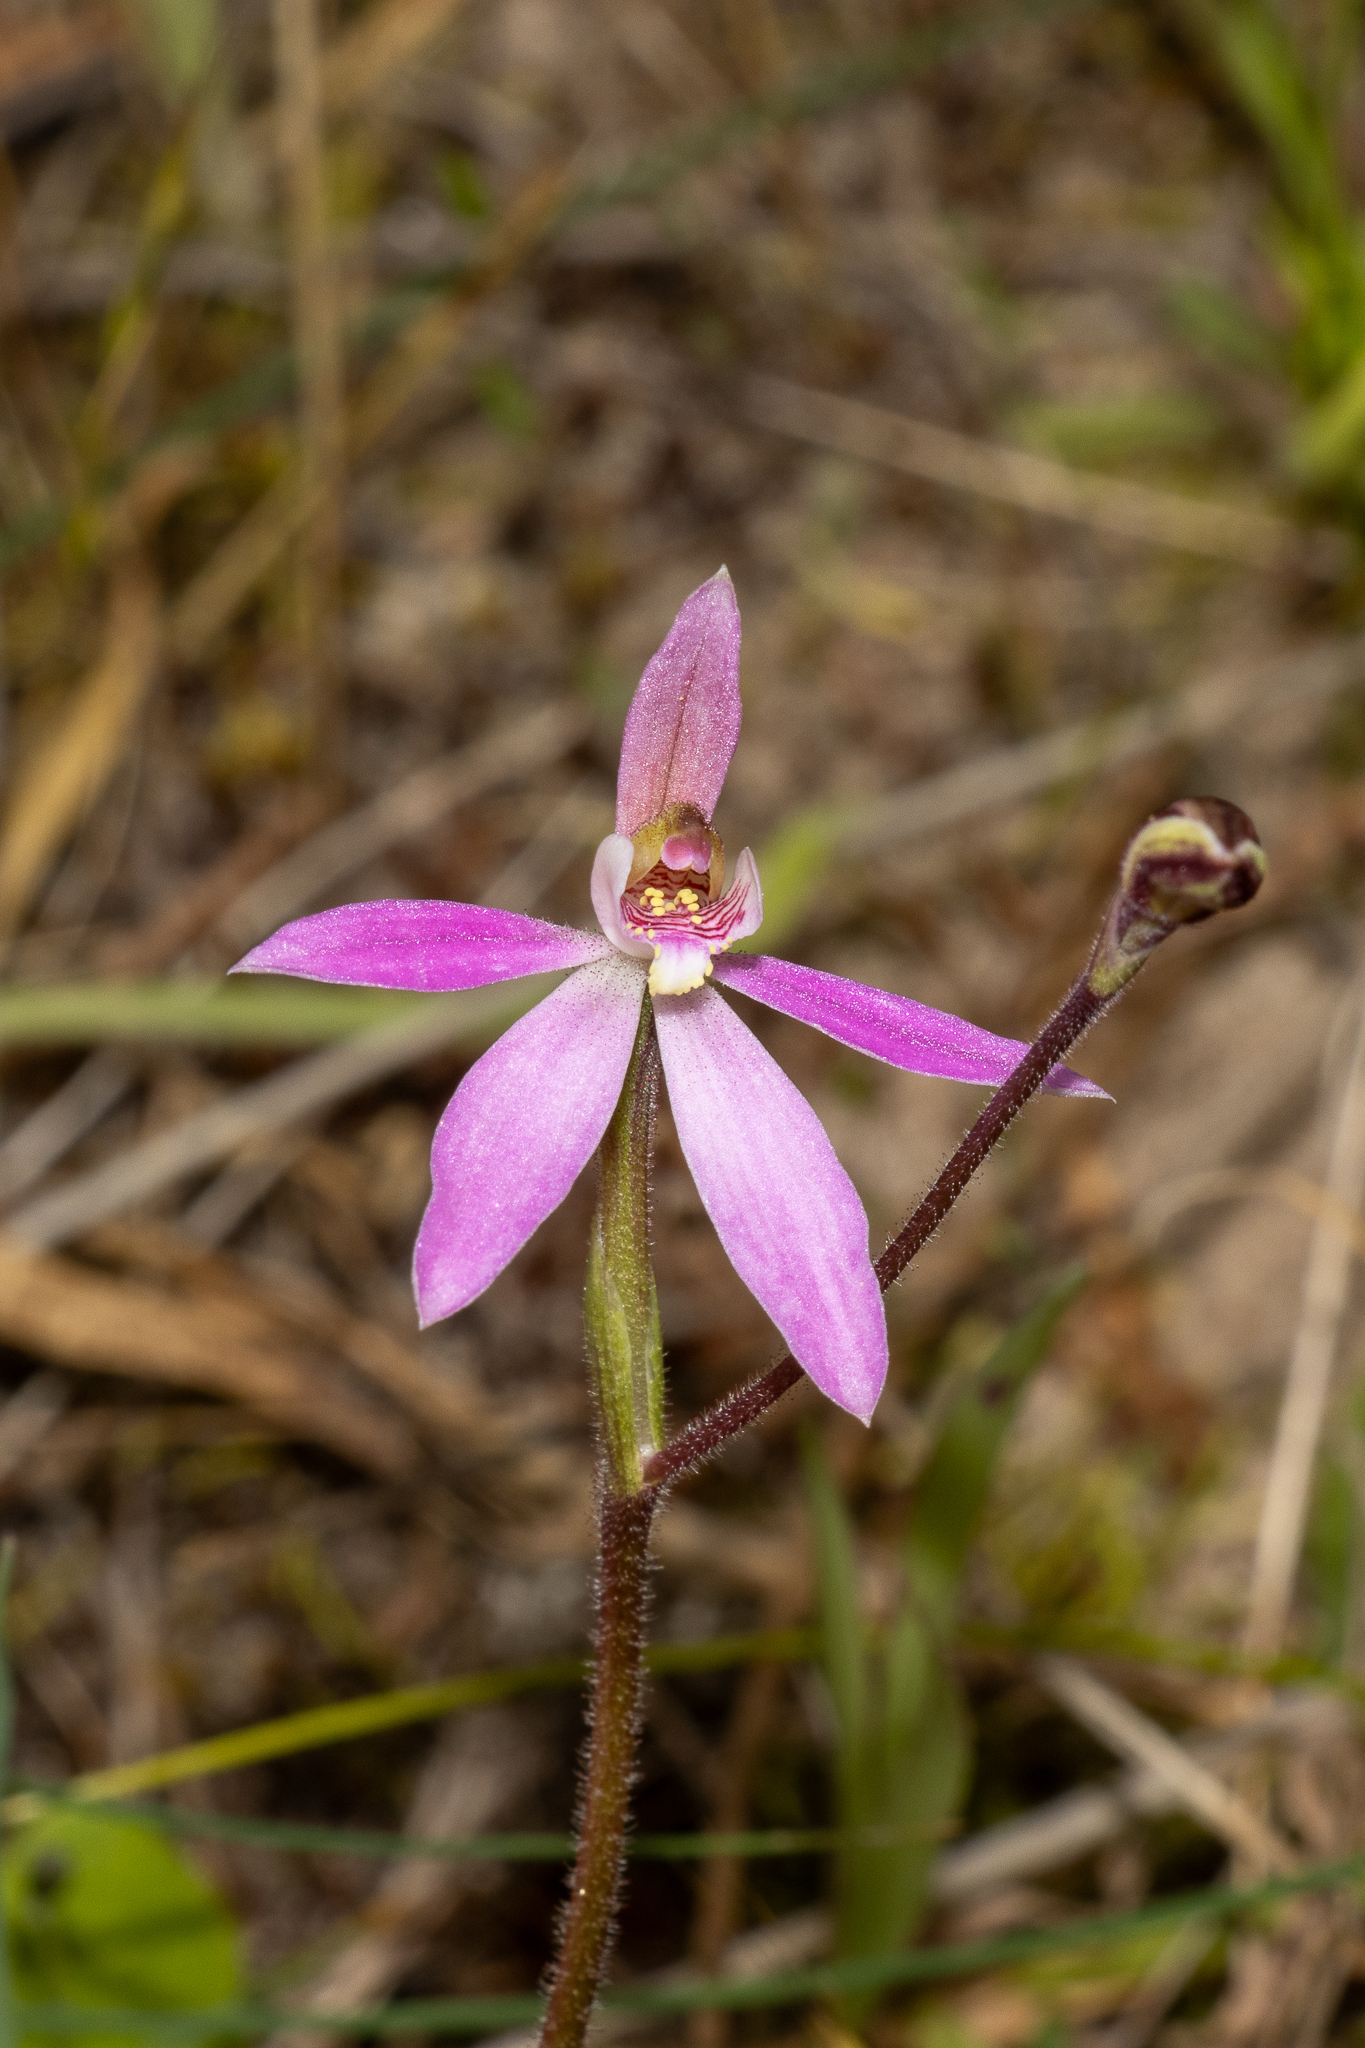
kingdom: Plantae
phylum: Tracheophyta
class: Liliopsida
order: Asparagales
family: Orchidaceae
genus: Caladenia
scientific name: Caladenia carnea
